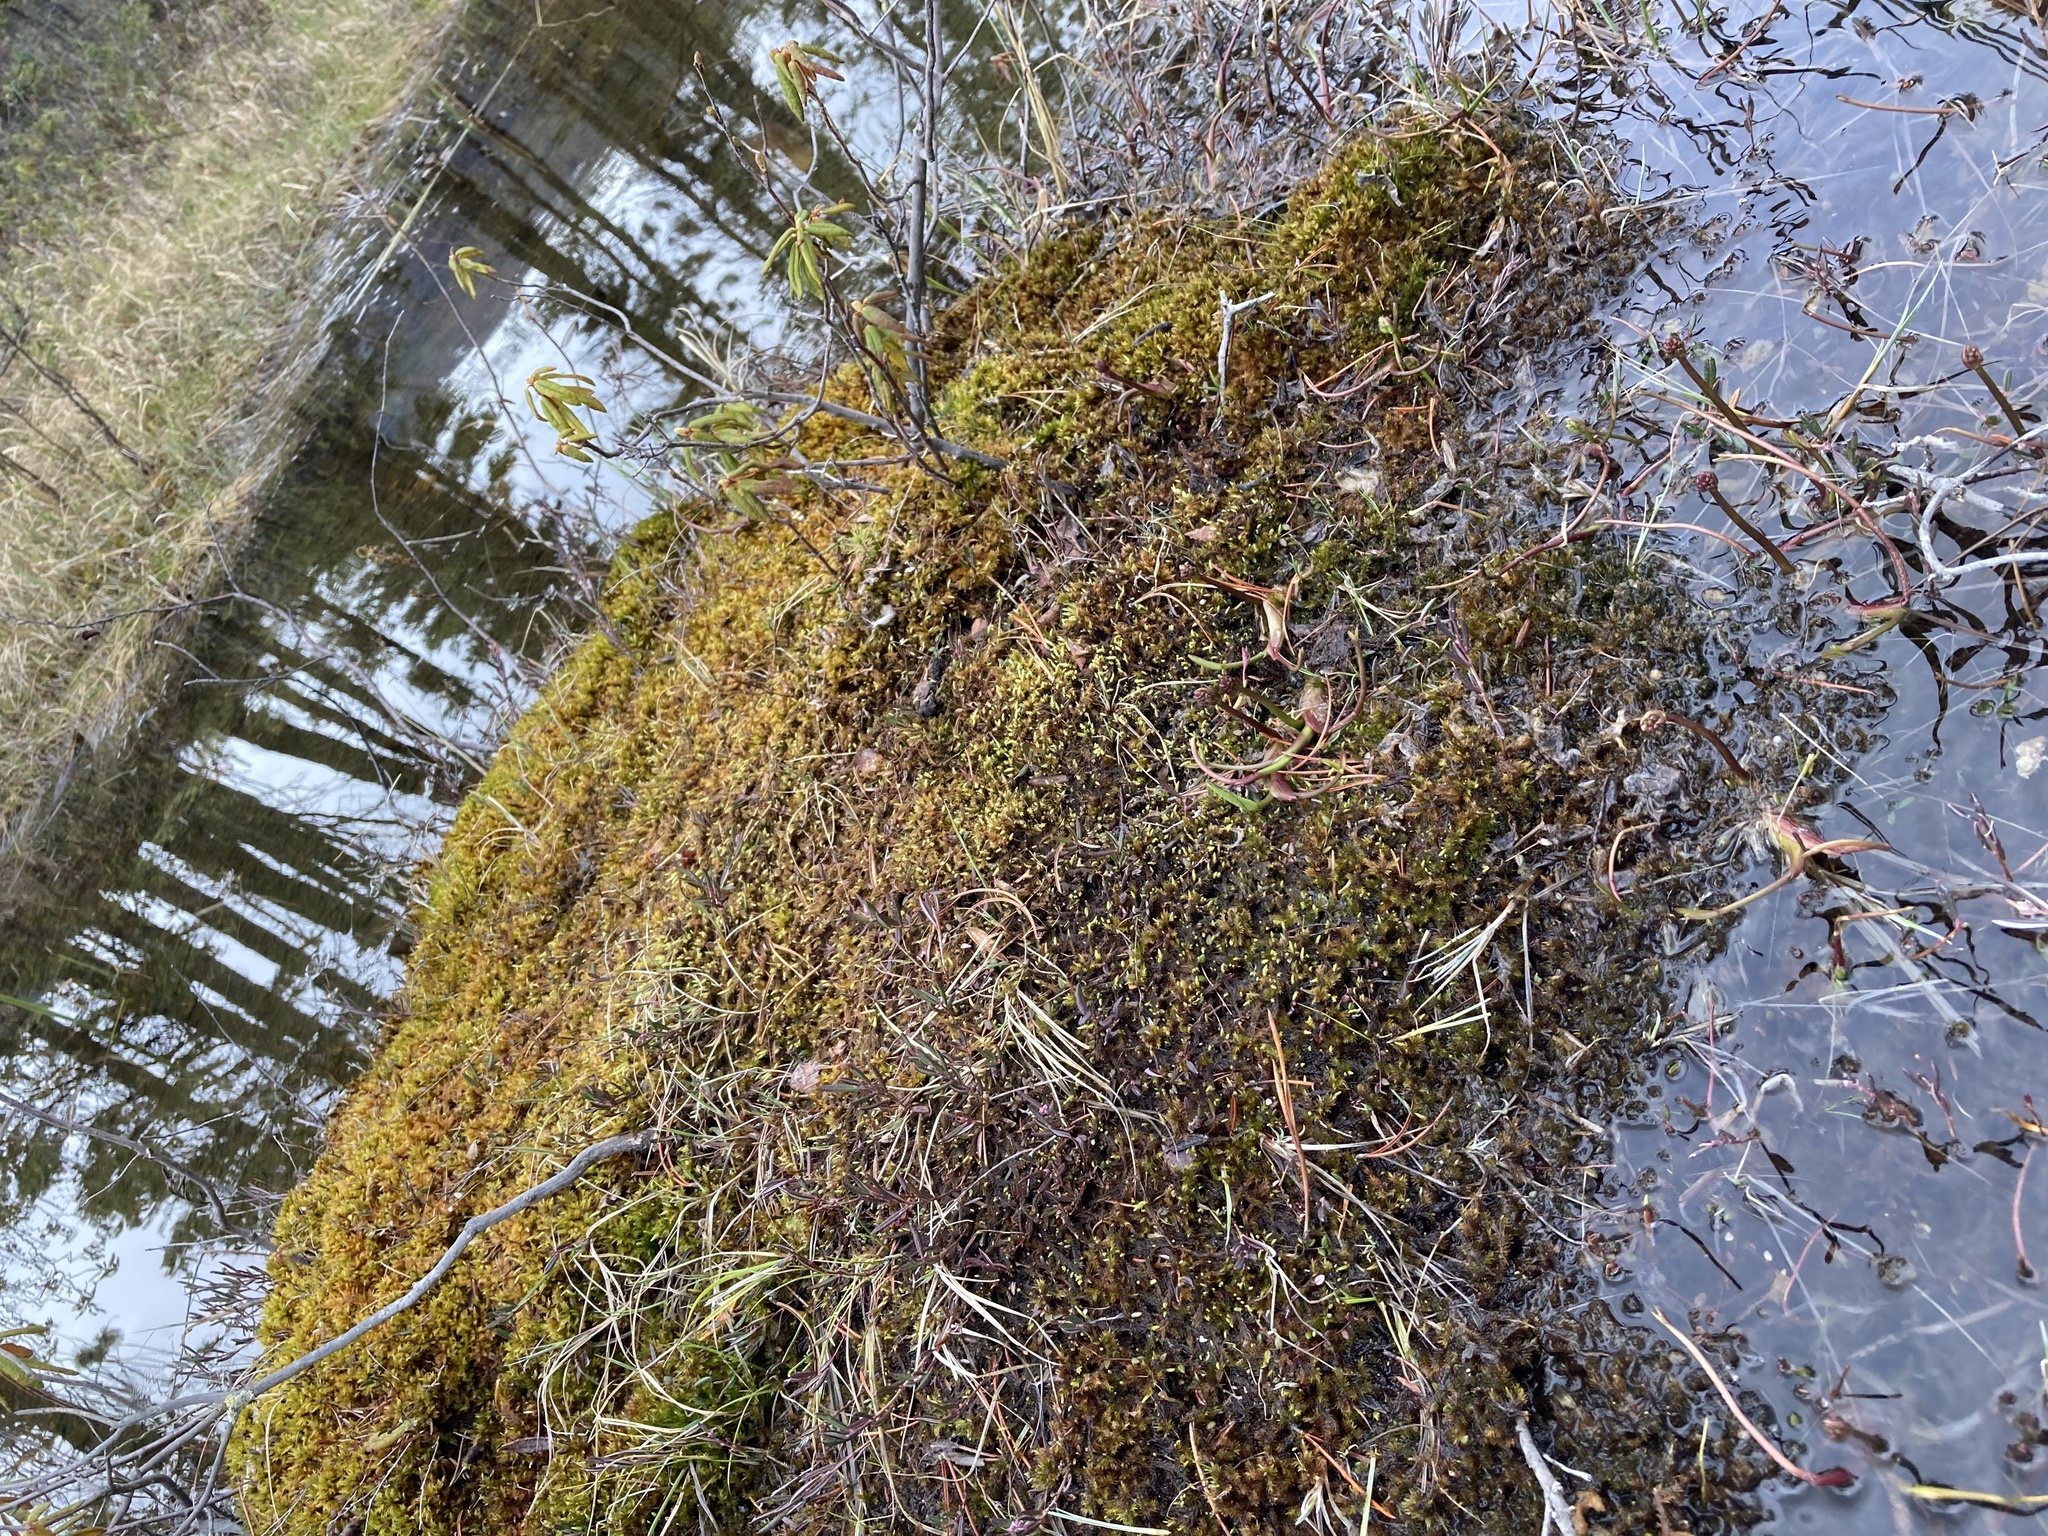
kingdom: Plantae
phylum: Tracheophyta
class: Magnoliopsida
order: Asterales
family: Menyanthaceae
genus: Menyanthes
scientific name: Menyanthes trifoliata
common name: Bogbean
